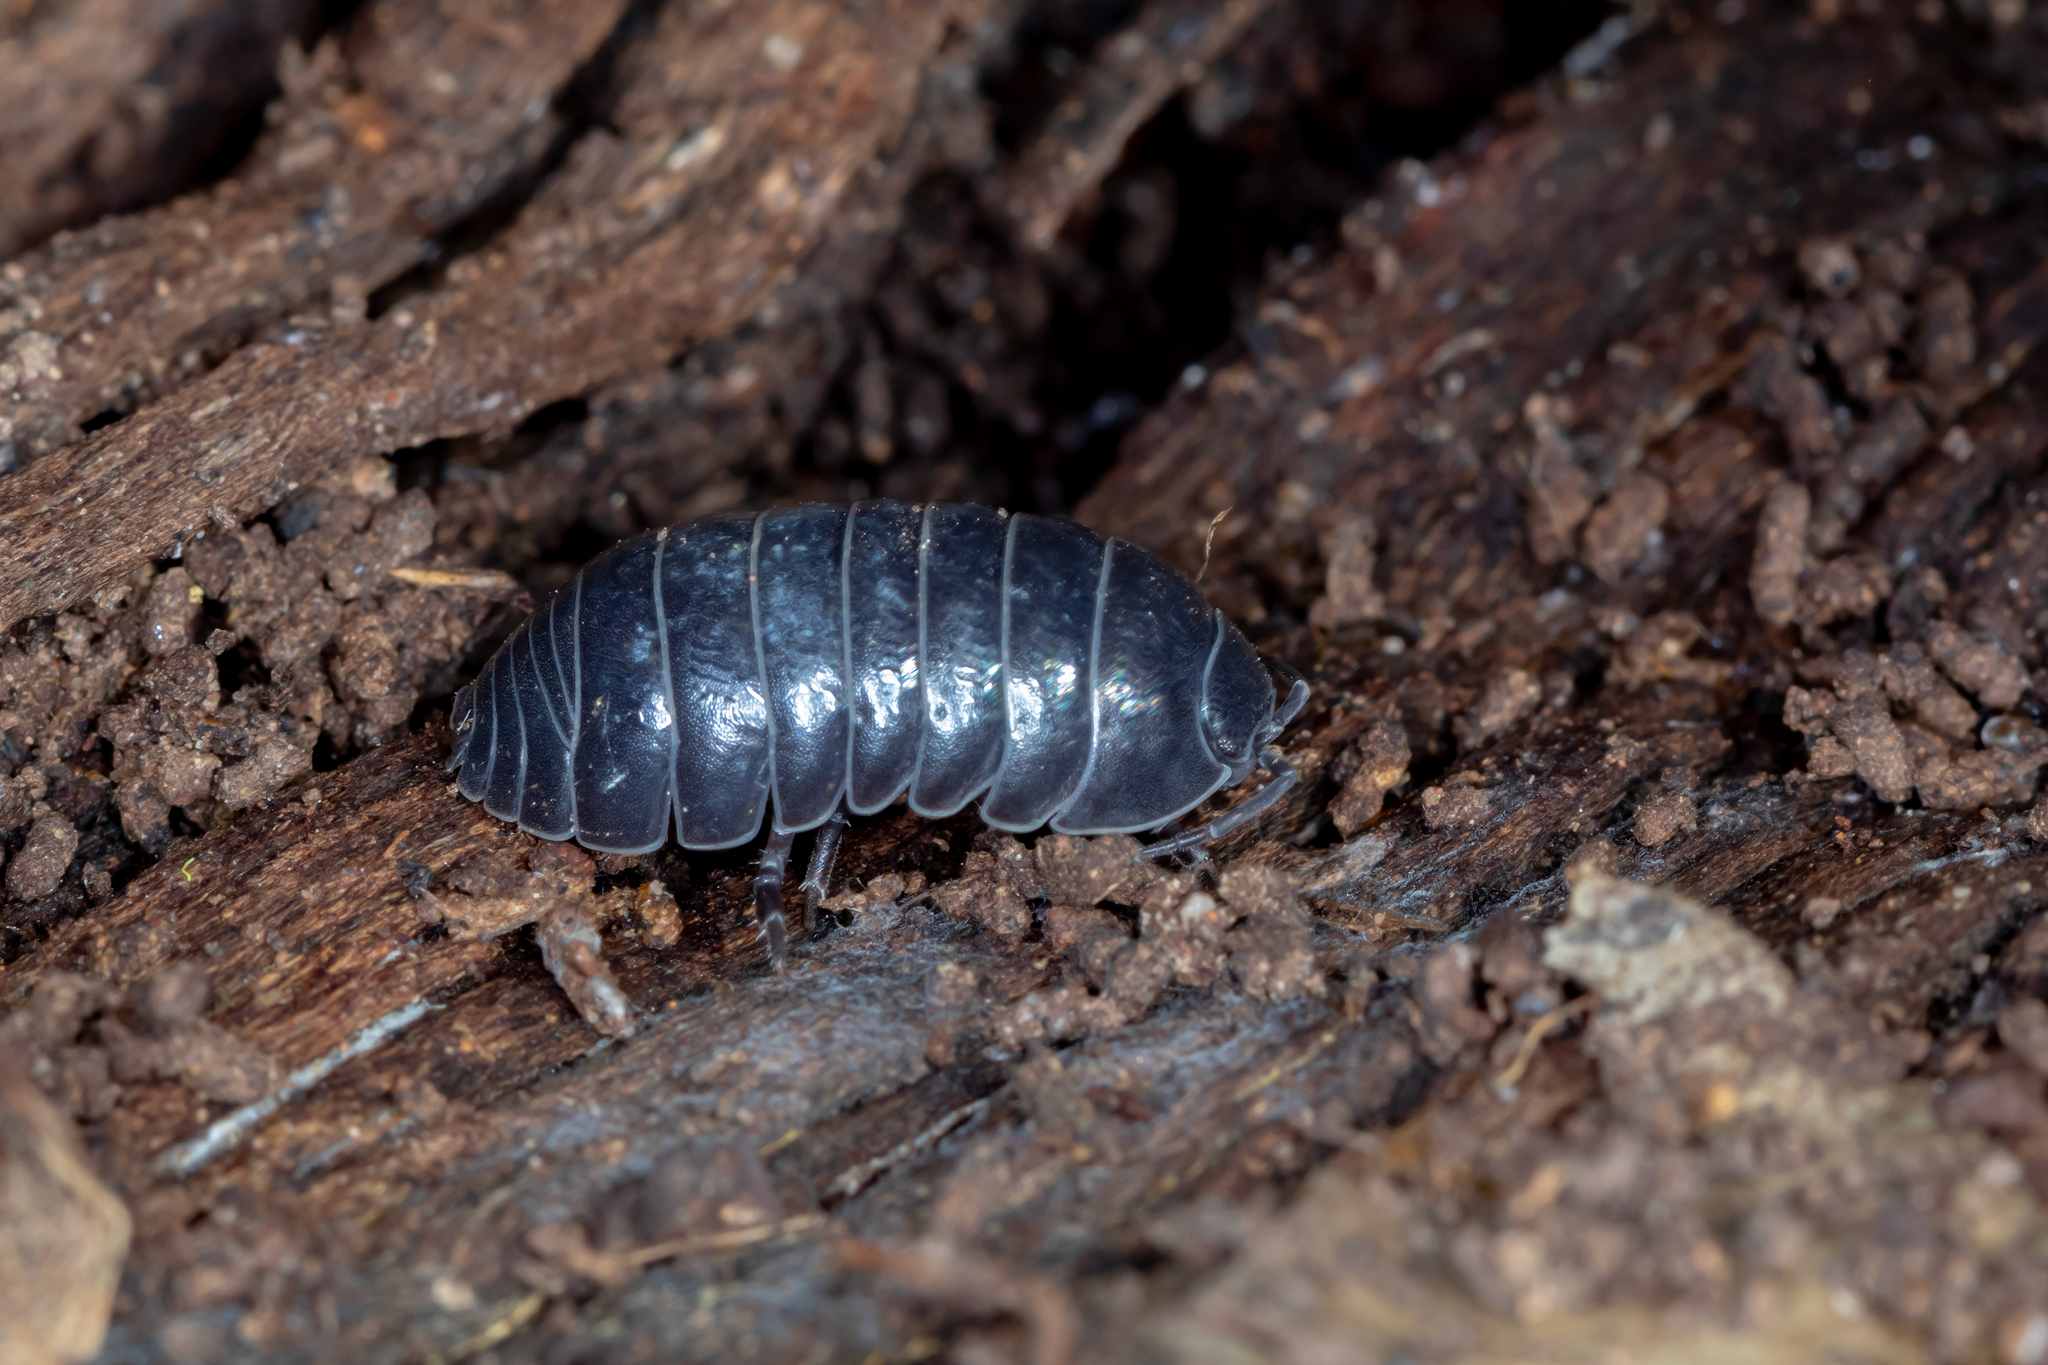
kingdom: Animalia
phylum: Arthropoda
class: Malacostraca
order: Isopoda
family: Armadillidiidae
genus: Armadillidium
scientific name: Armadillidium vulgare
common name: Common pill woodlouse
